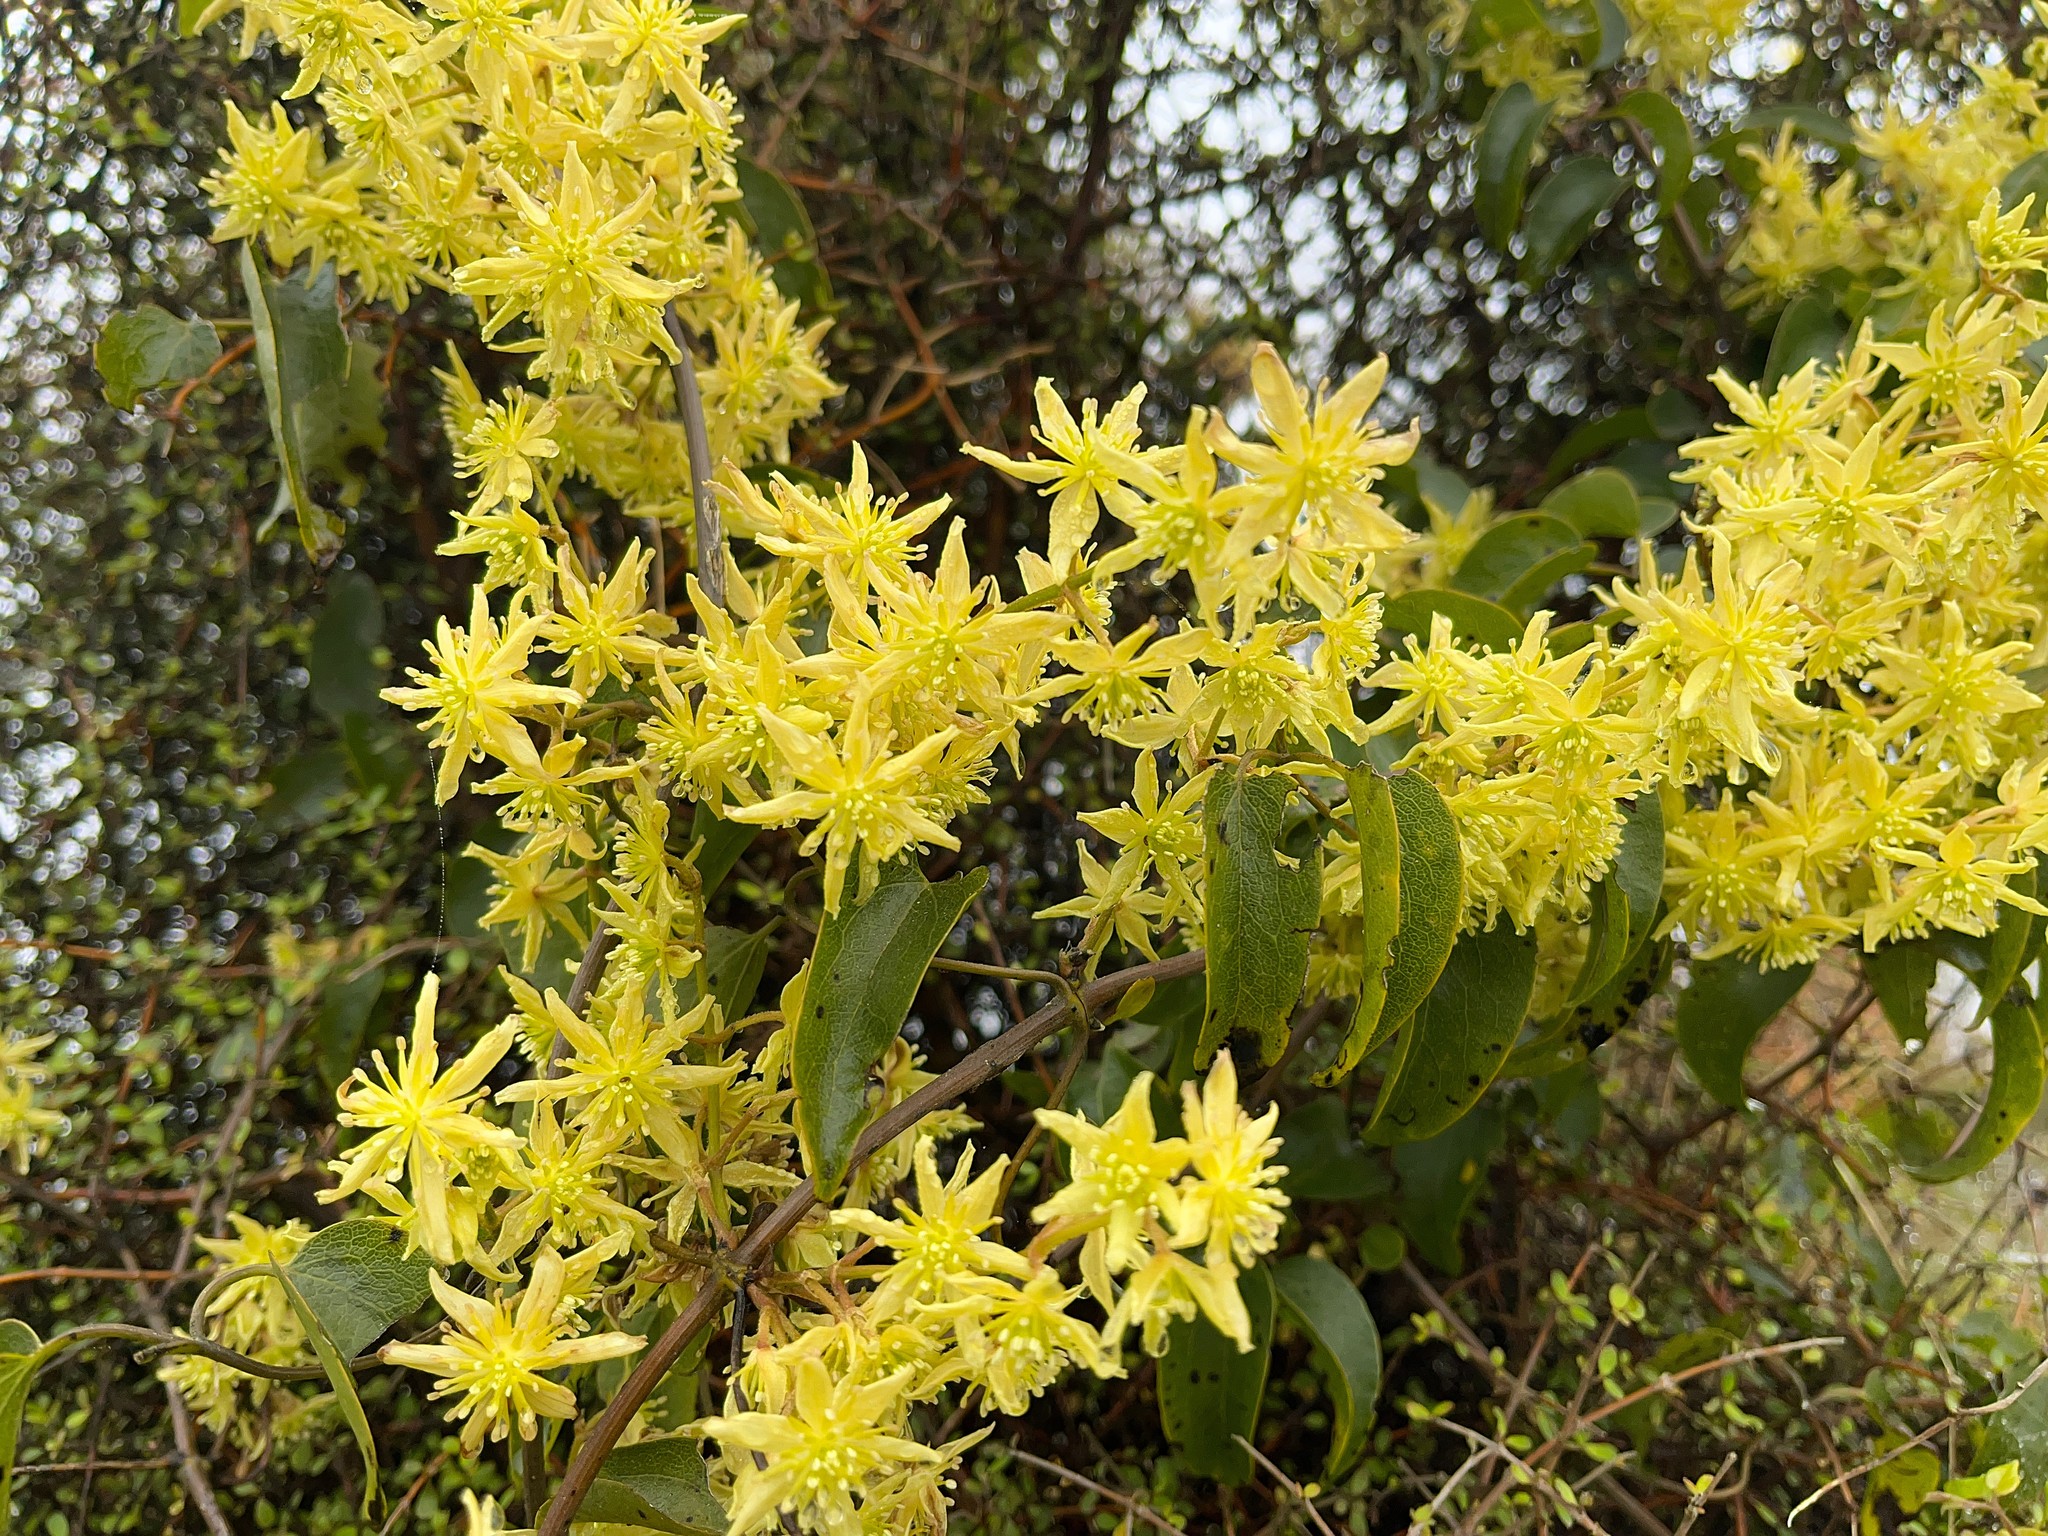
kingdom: Plantae
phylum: Tracheophyta
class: Magnoliopsida
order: Ranunculales
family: Ranunculaceae
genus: Clematis
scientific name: Clematis foetida
